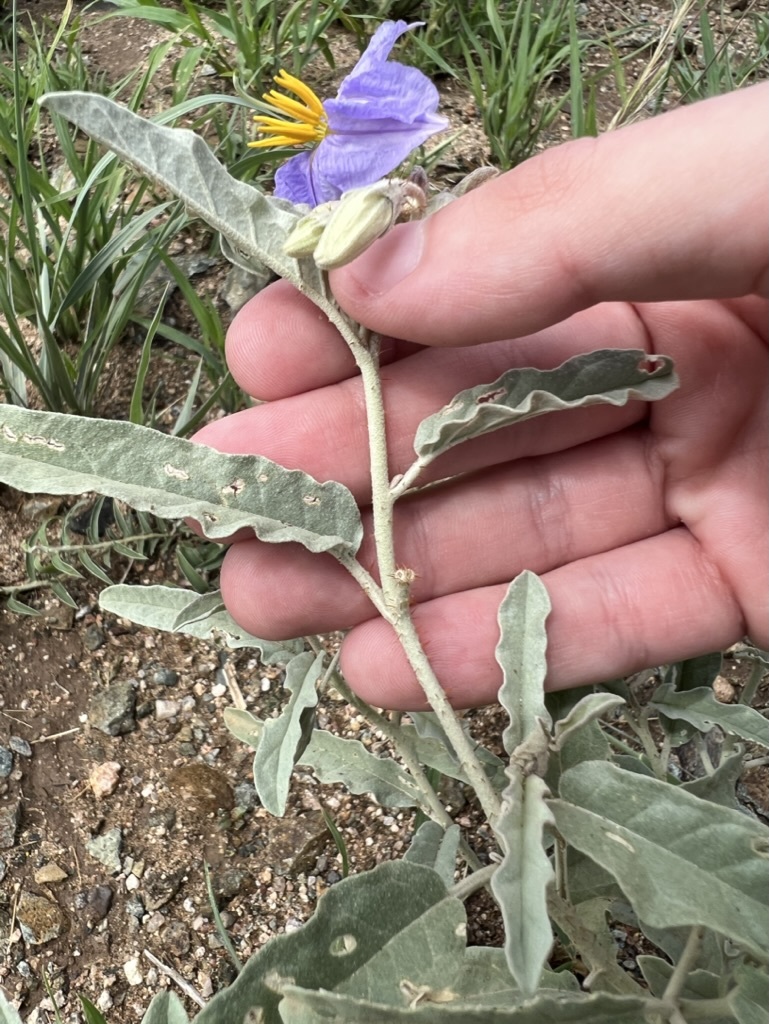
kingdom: Plantae
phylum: Tracheophyta
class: Magnoliopsida
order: Solanales
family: Solanaceae
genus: Solanum
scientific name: Solanum elaeagnifolium
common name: Silverleaf nightshade
